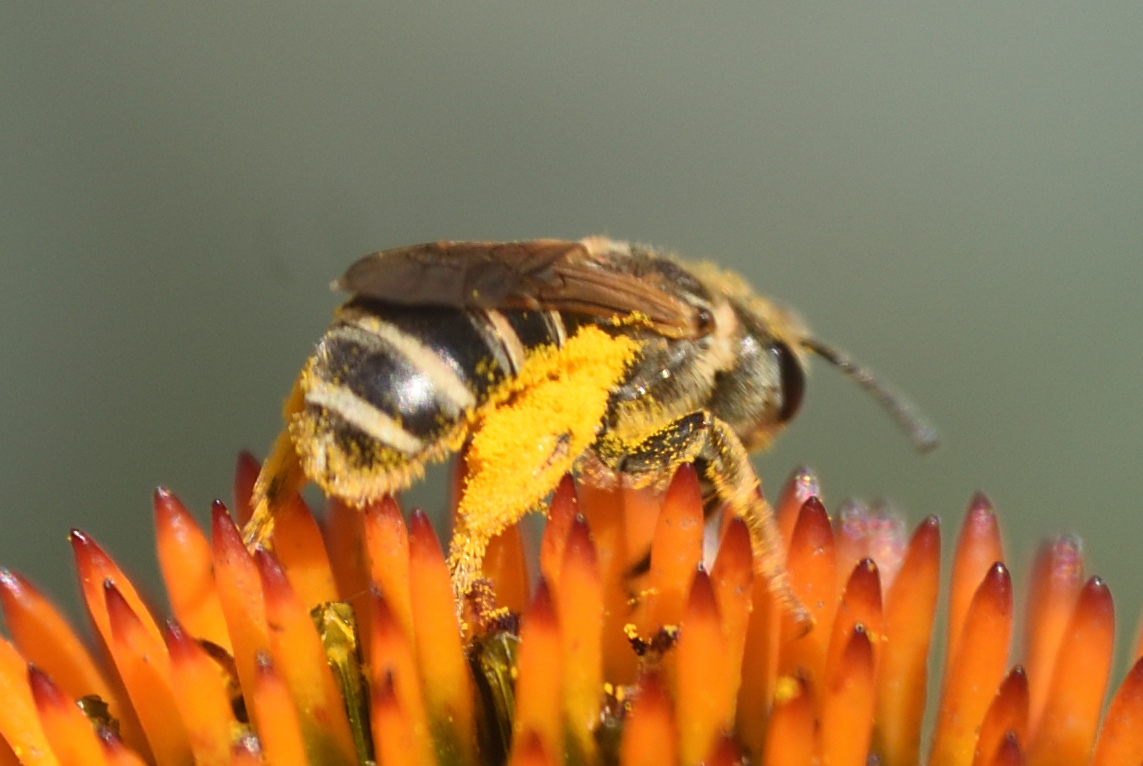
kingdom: Animalia
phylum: Arthropoda
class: Insecta
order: Hymenoptera
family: Halictidae
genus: Halictus
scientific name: Halictus ligatus
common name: Ligated furrow bee
